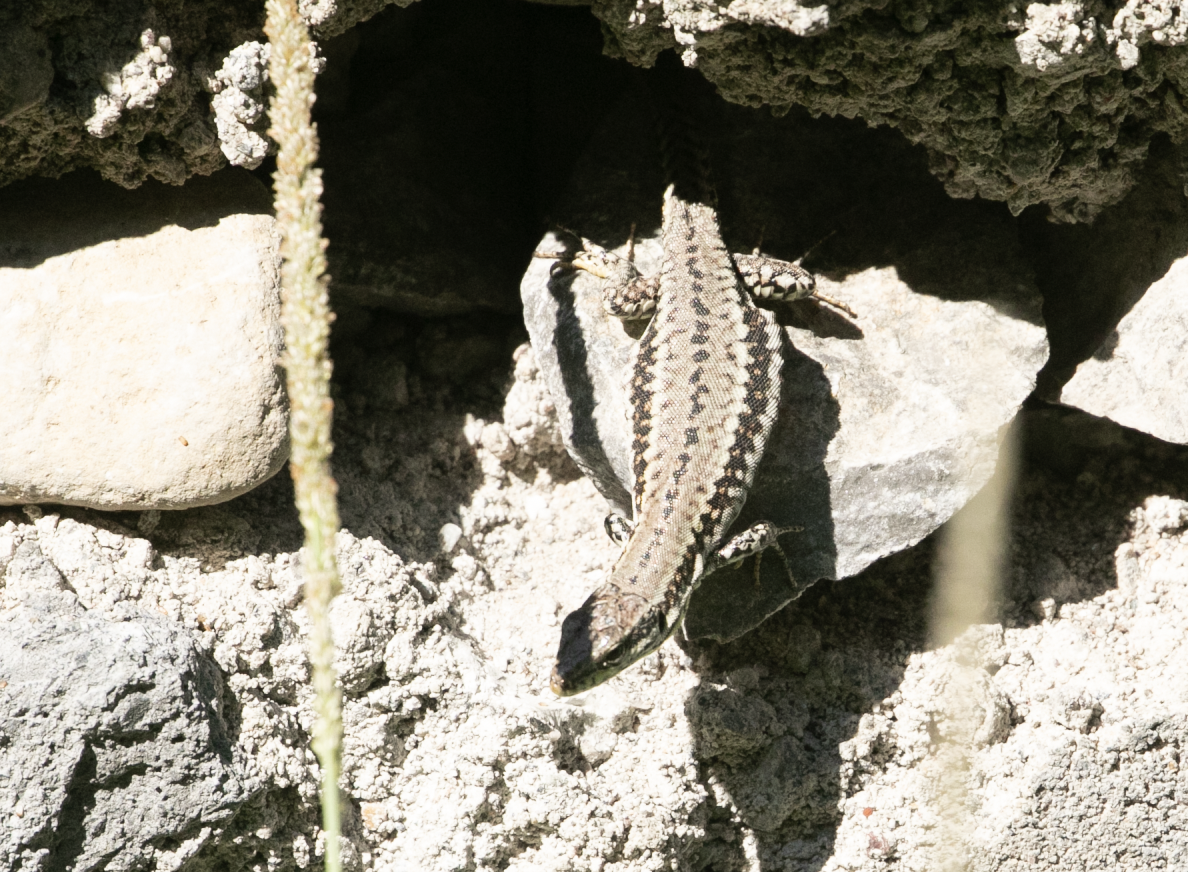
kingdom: Animalia
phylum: Chordata
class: Squamata
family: Lacertidae
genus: Podarcis
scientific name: Podarcis muralis
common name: Common wall lizard
